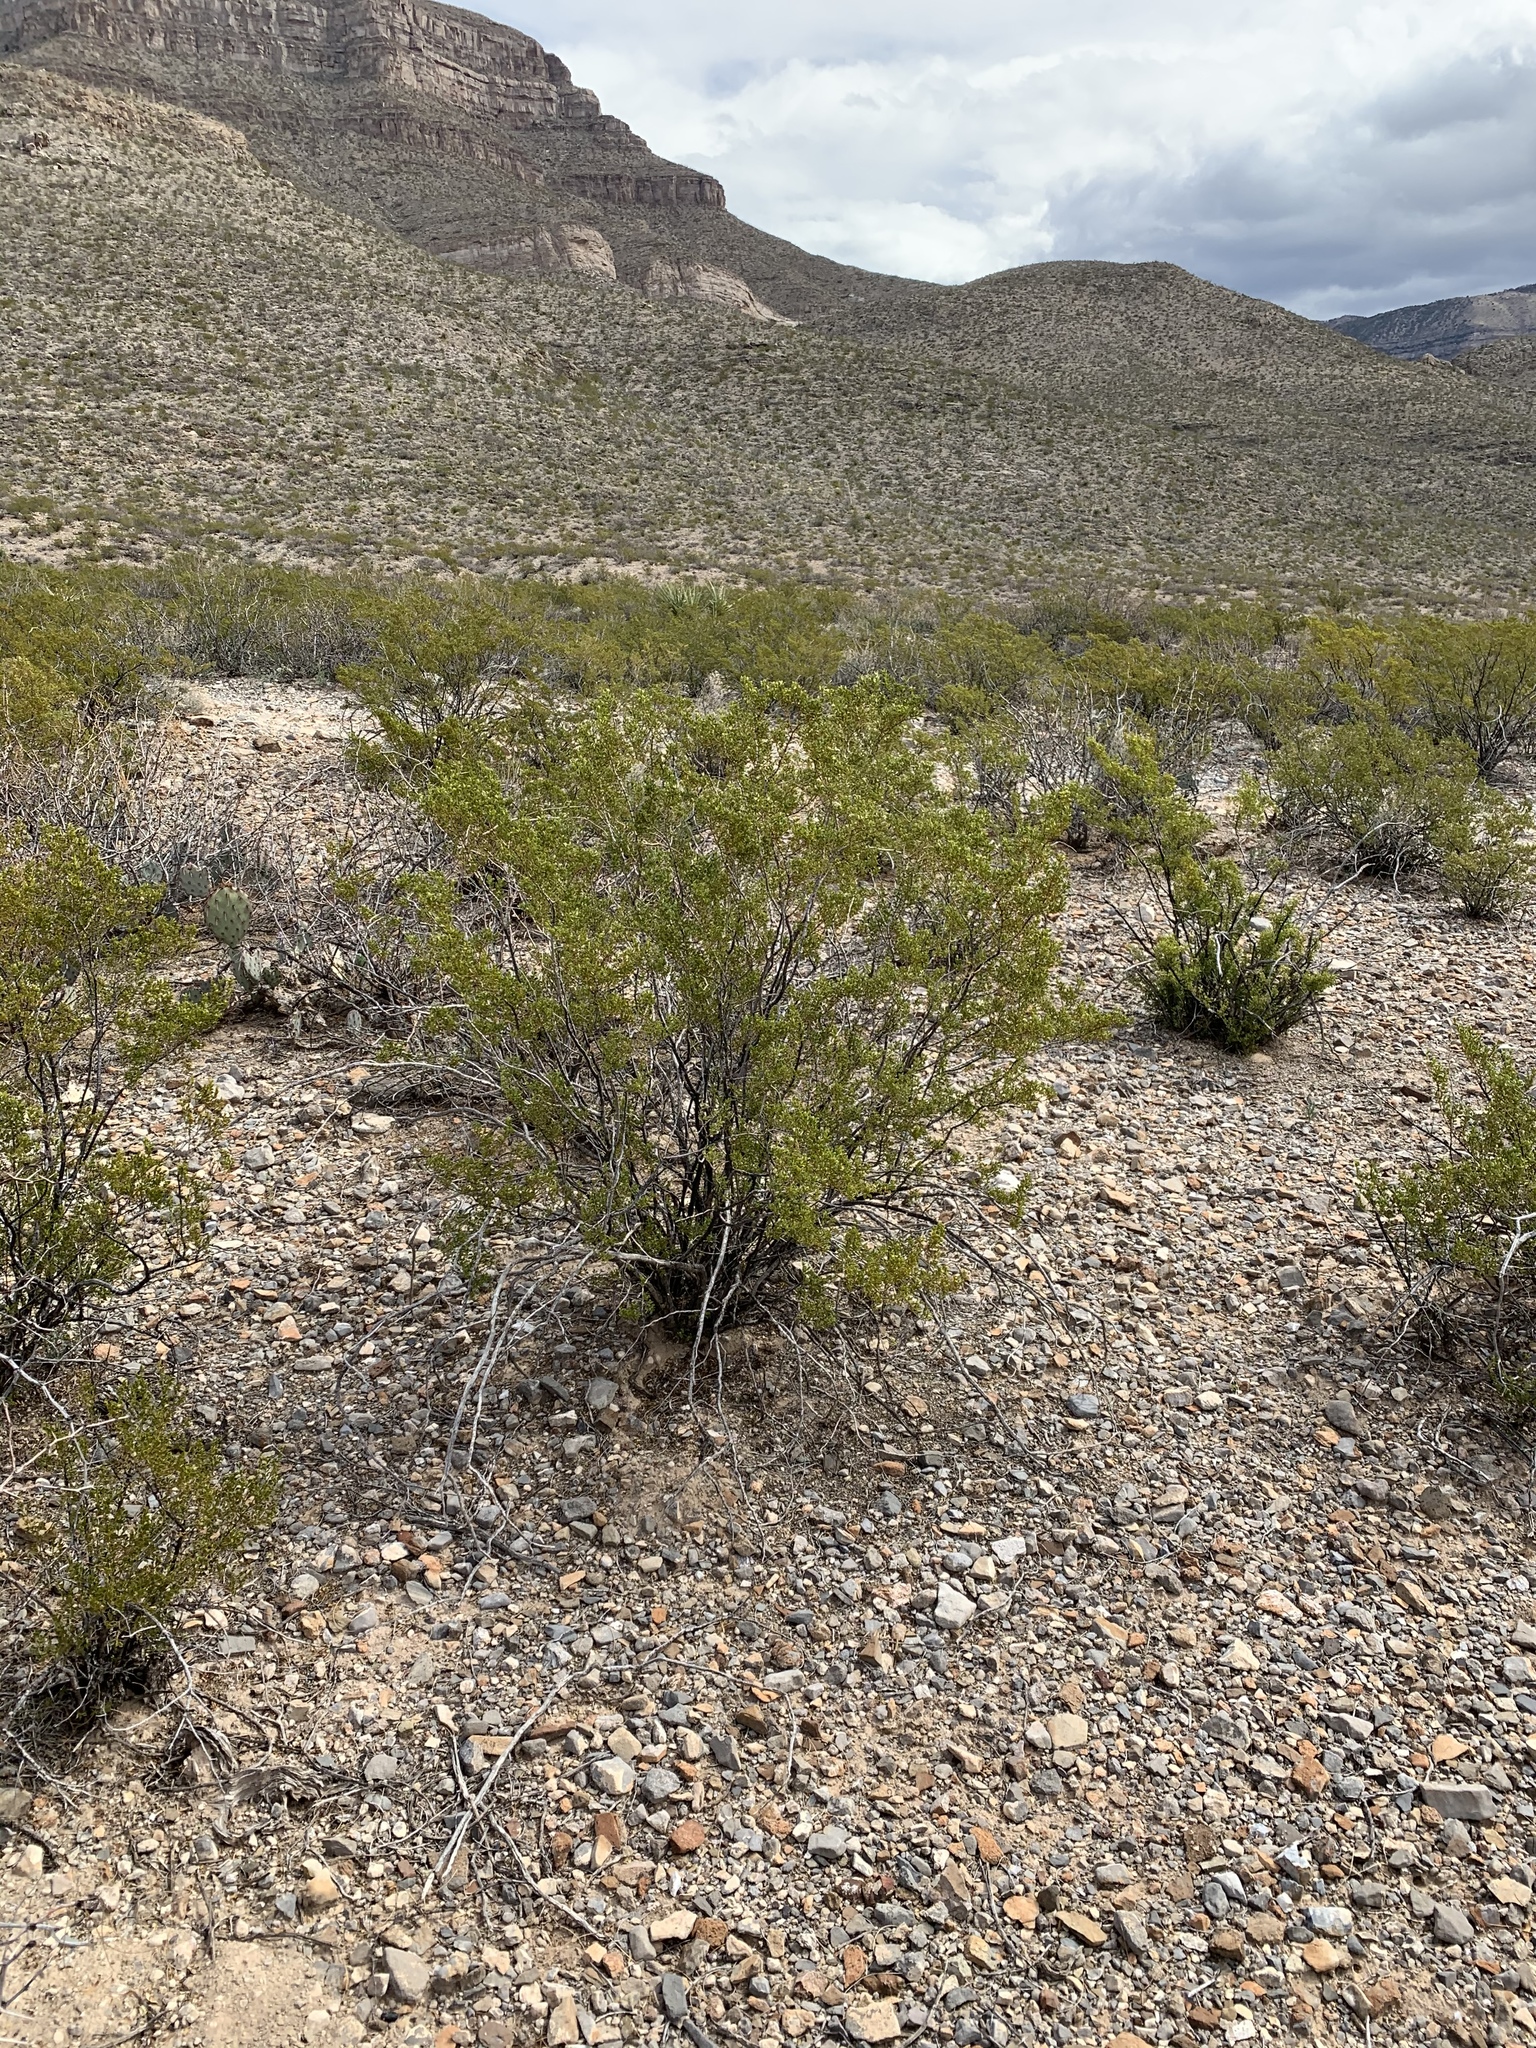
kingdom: Plantae
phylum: Tracheophyta
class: Magnoliopsida
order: Zygophyllales
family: Zygophyllaceae
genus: Larrea
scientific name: Larrea tridentata
